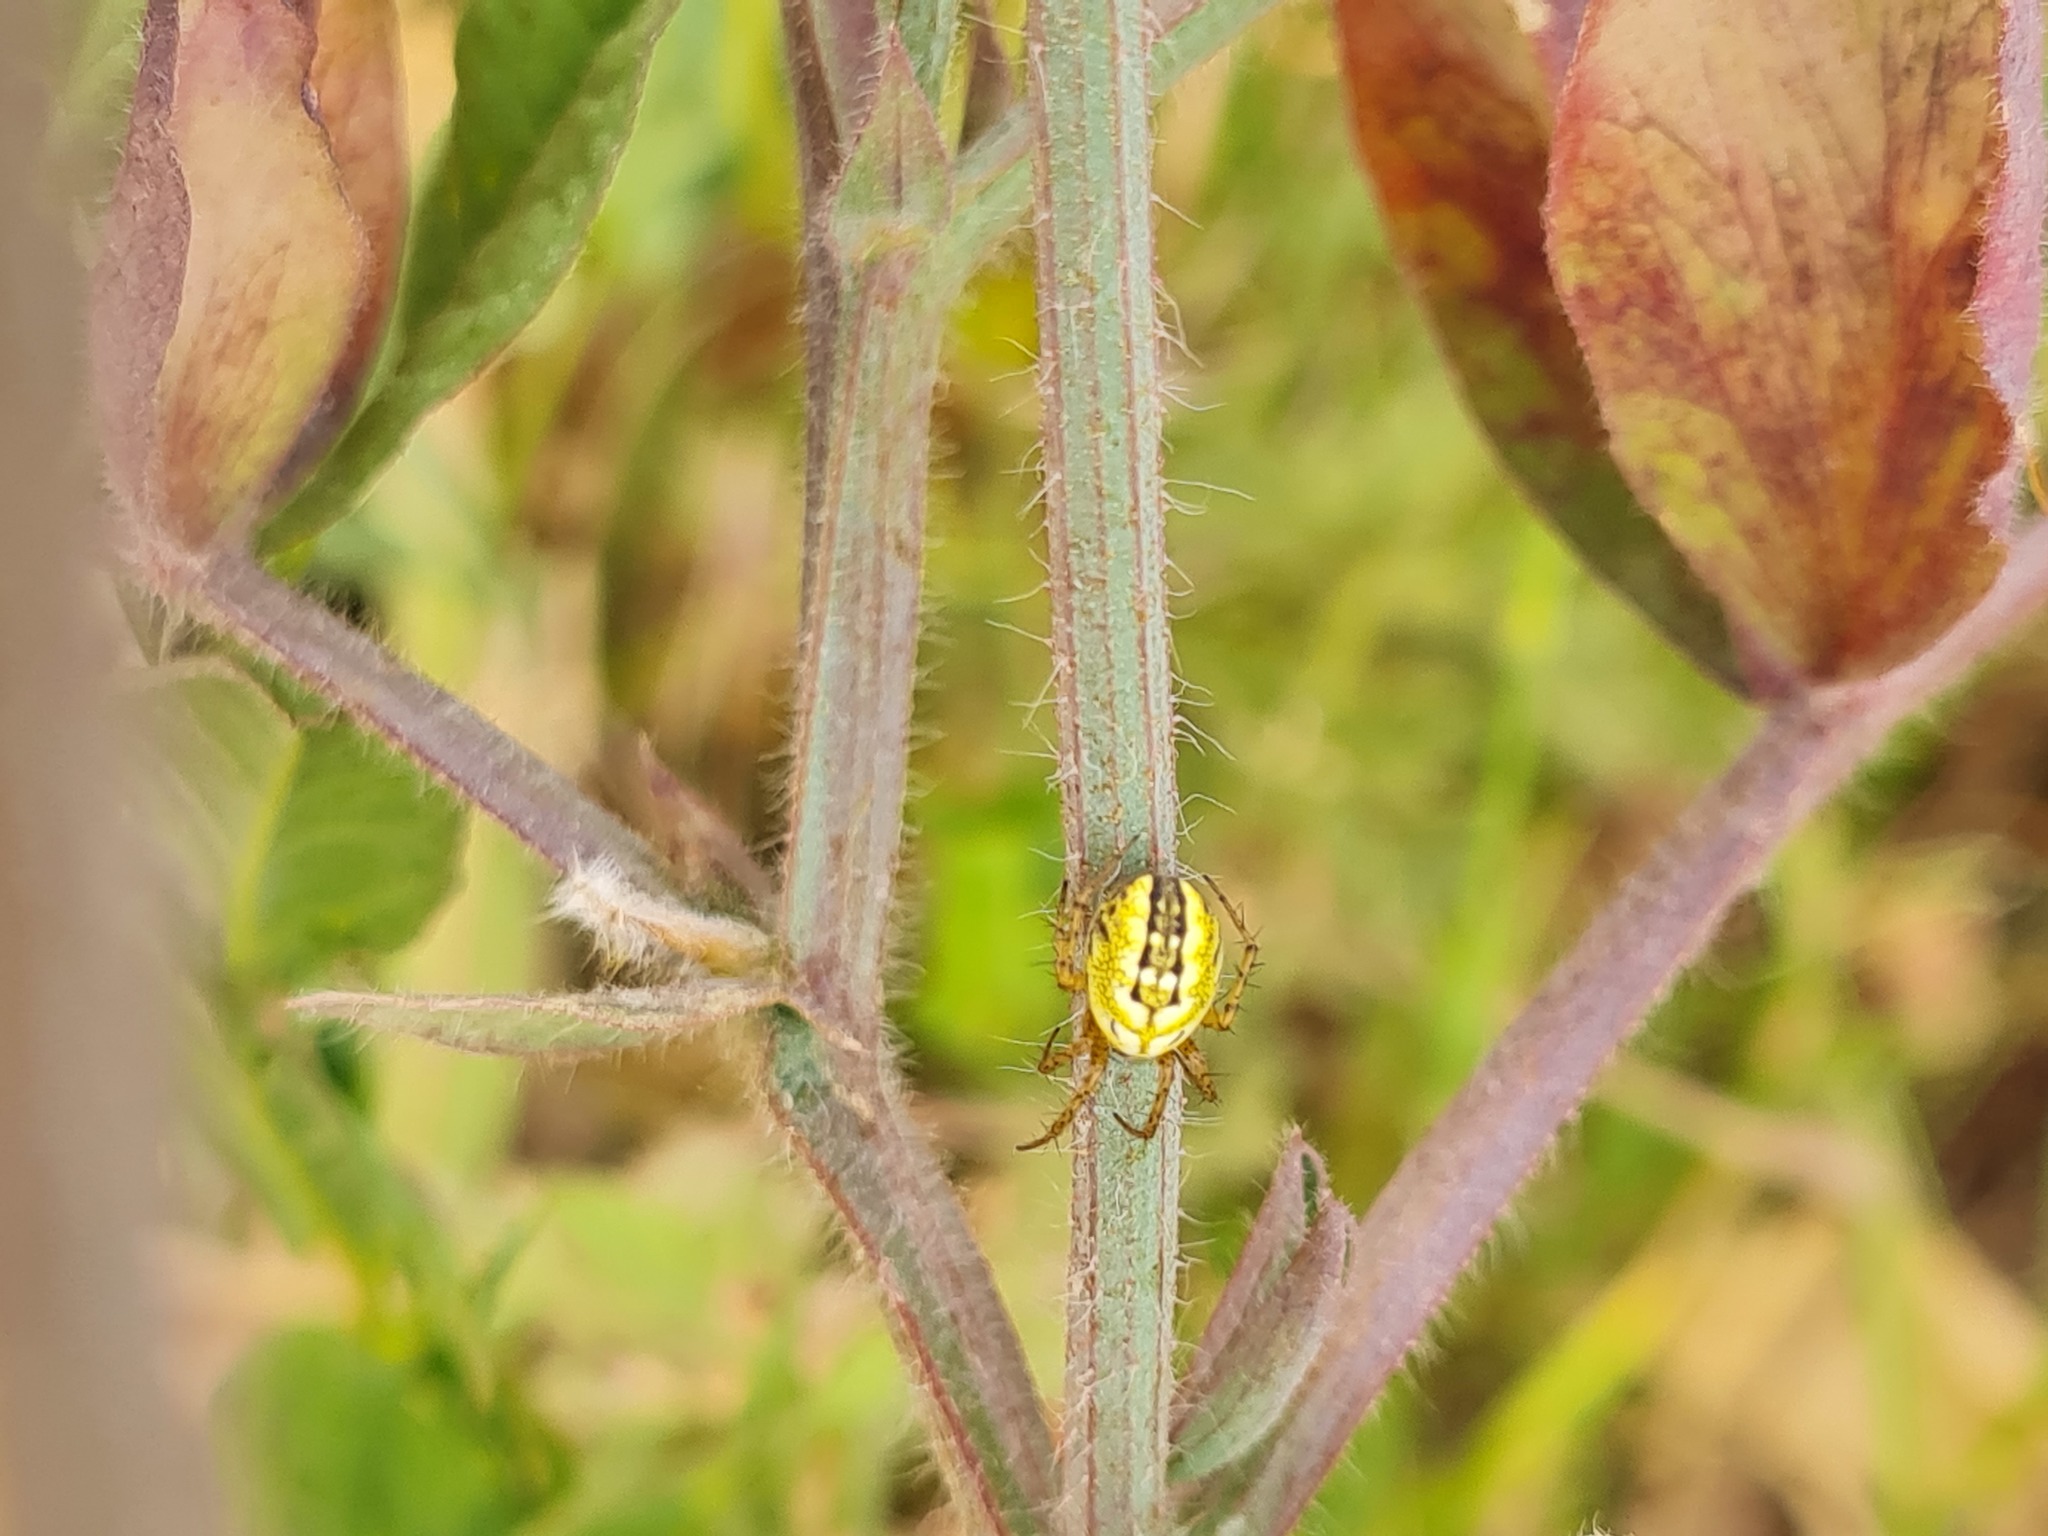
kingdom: Animalia
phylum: Arthropoda
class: Arachnida
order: Araneae
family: Araneidae
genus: Mangora
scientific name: Mangora acalypha
